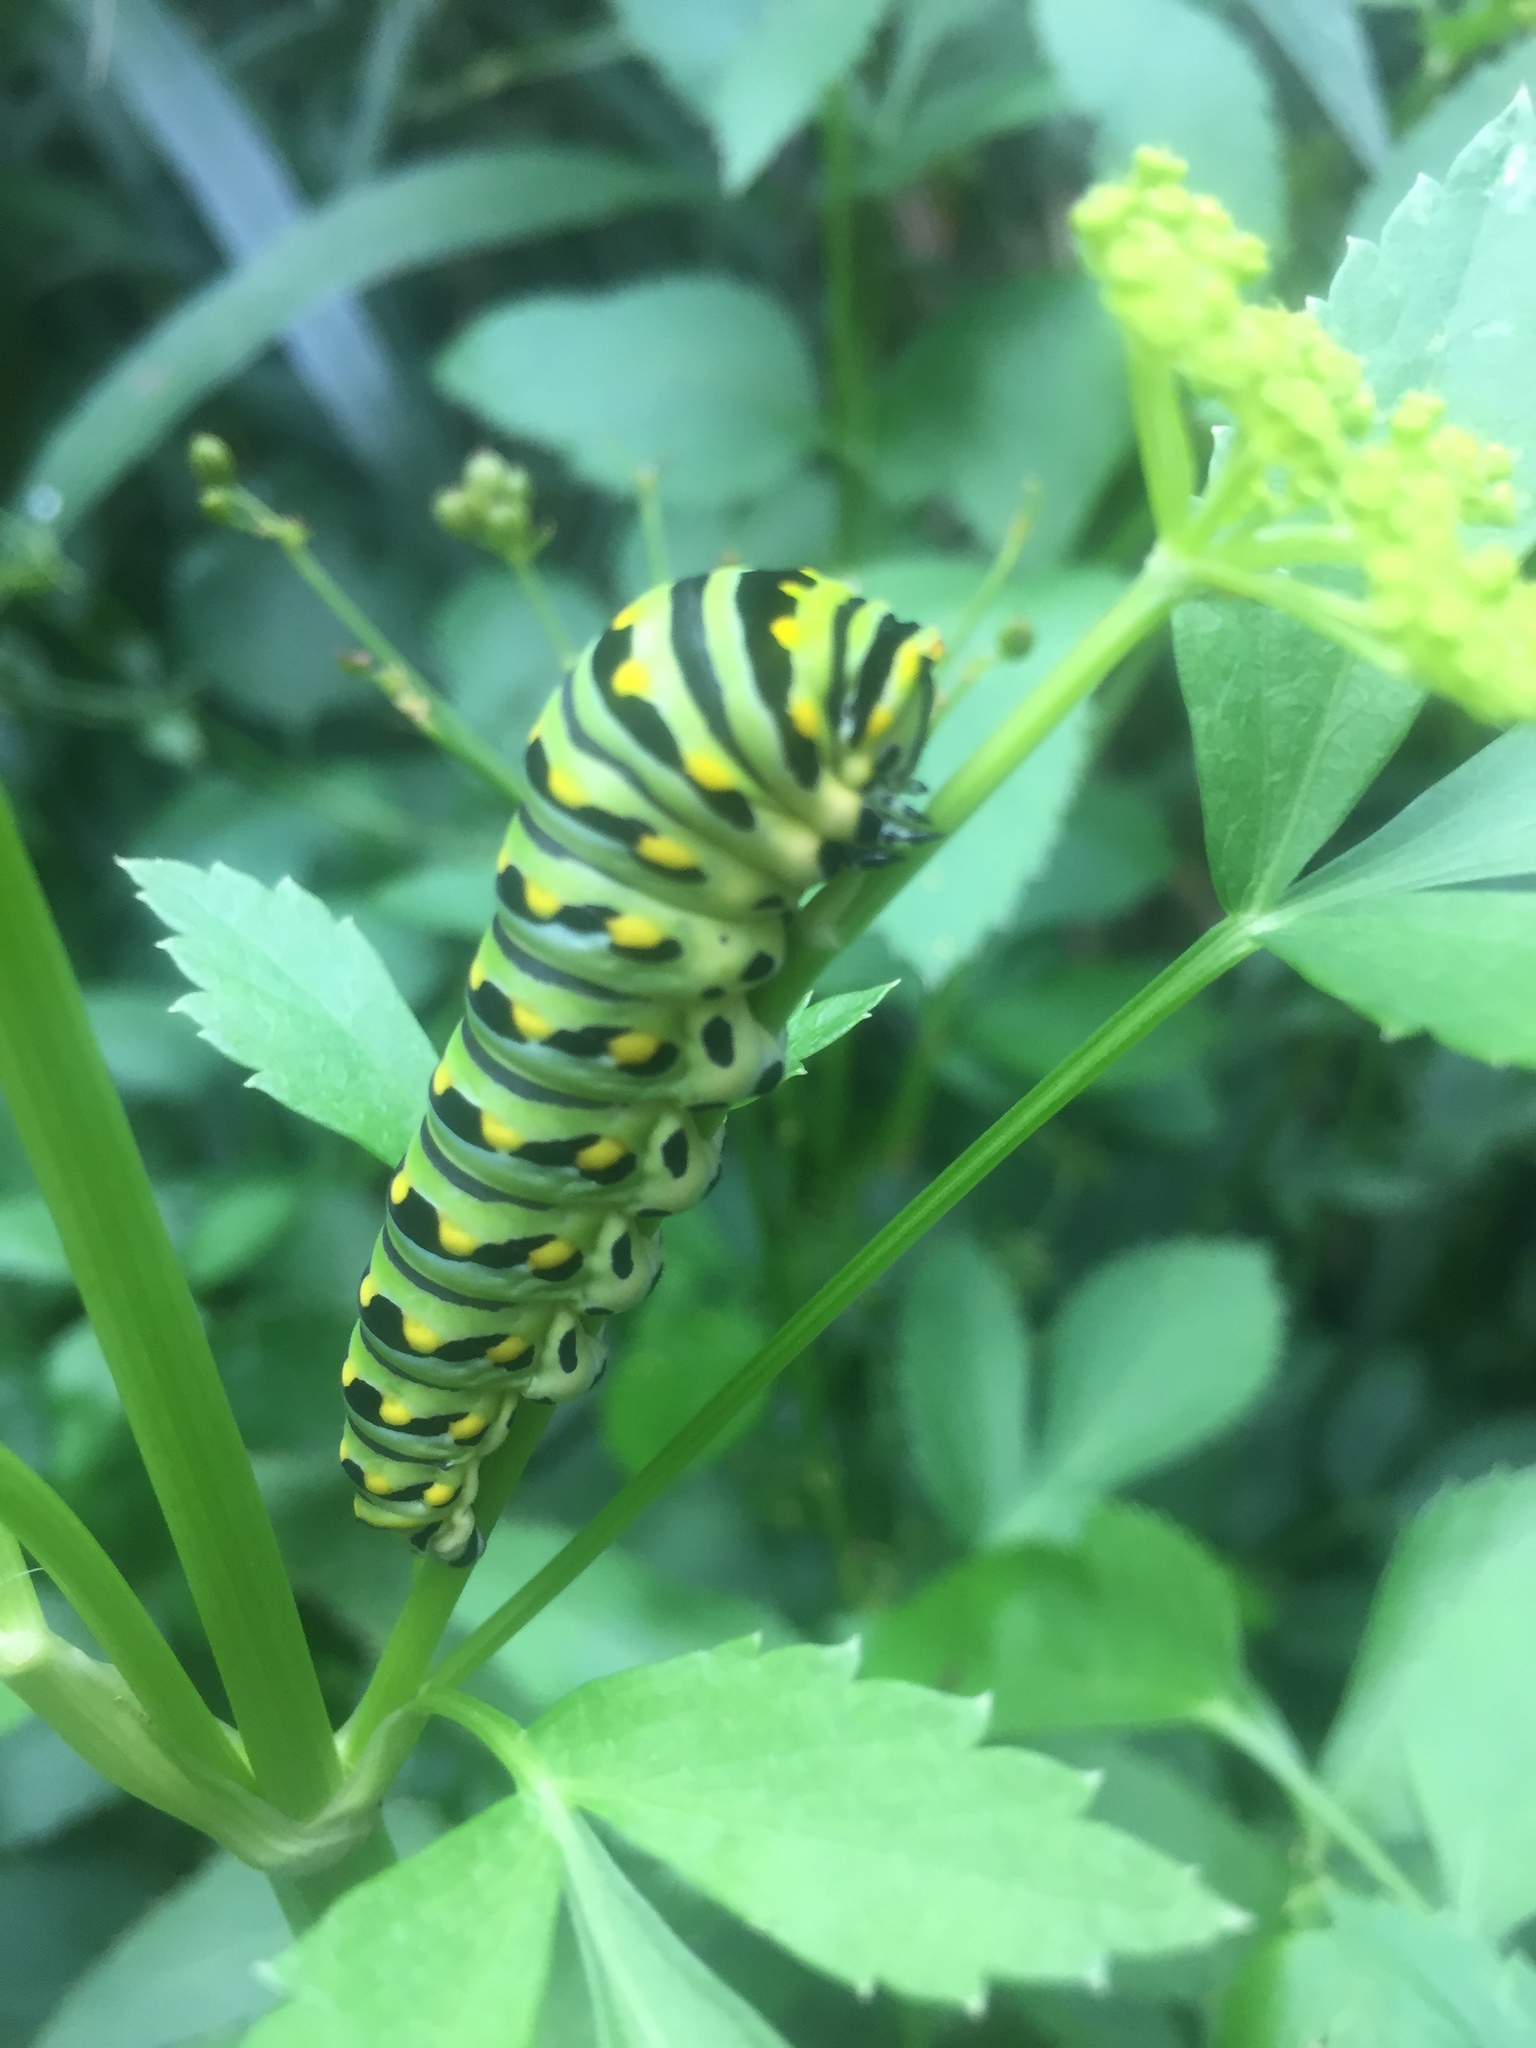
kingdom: Animalia
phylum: Arthropoda
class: Insecta
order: Lepidoptera
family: Papilionidae
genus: Papilio
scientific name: Papilio polyxenes
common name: Black swallowtail
